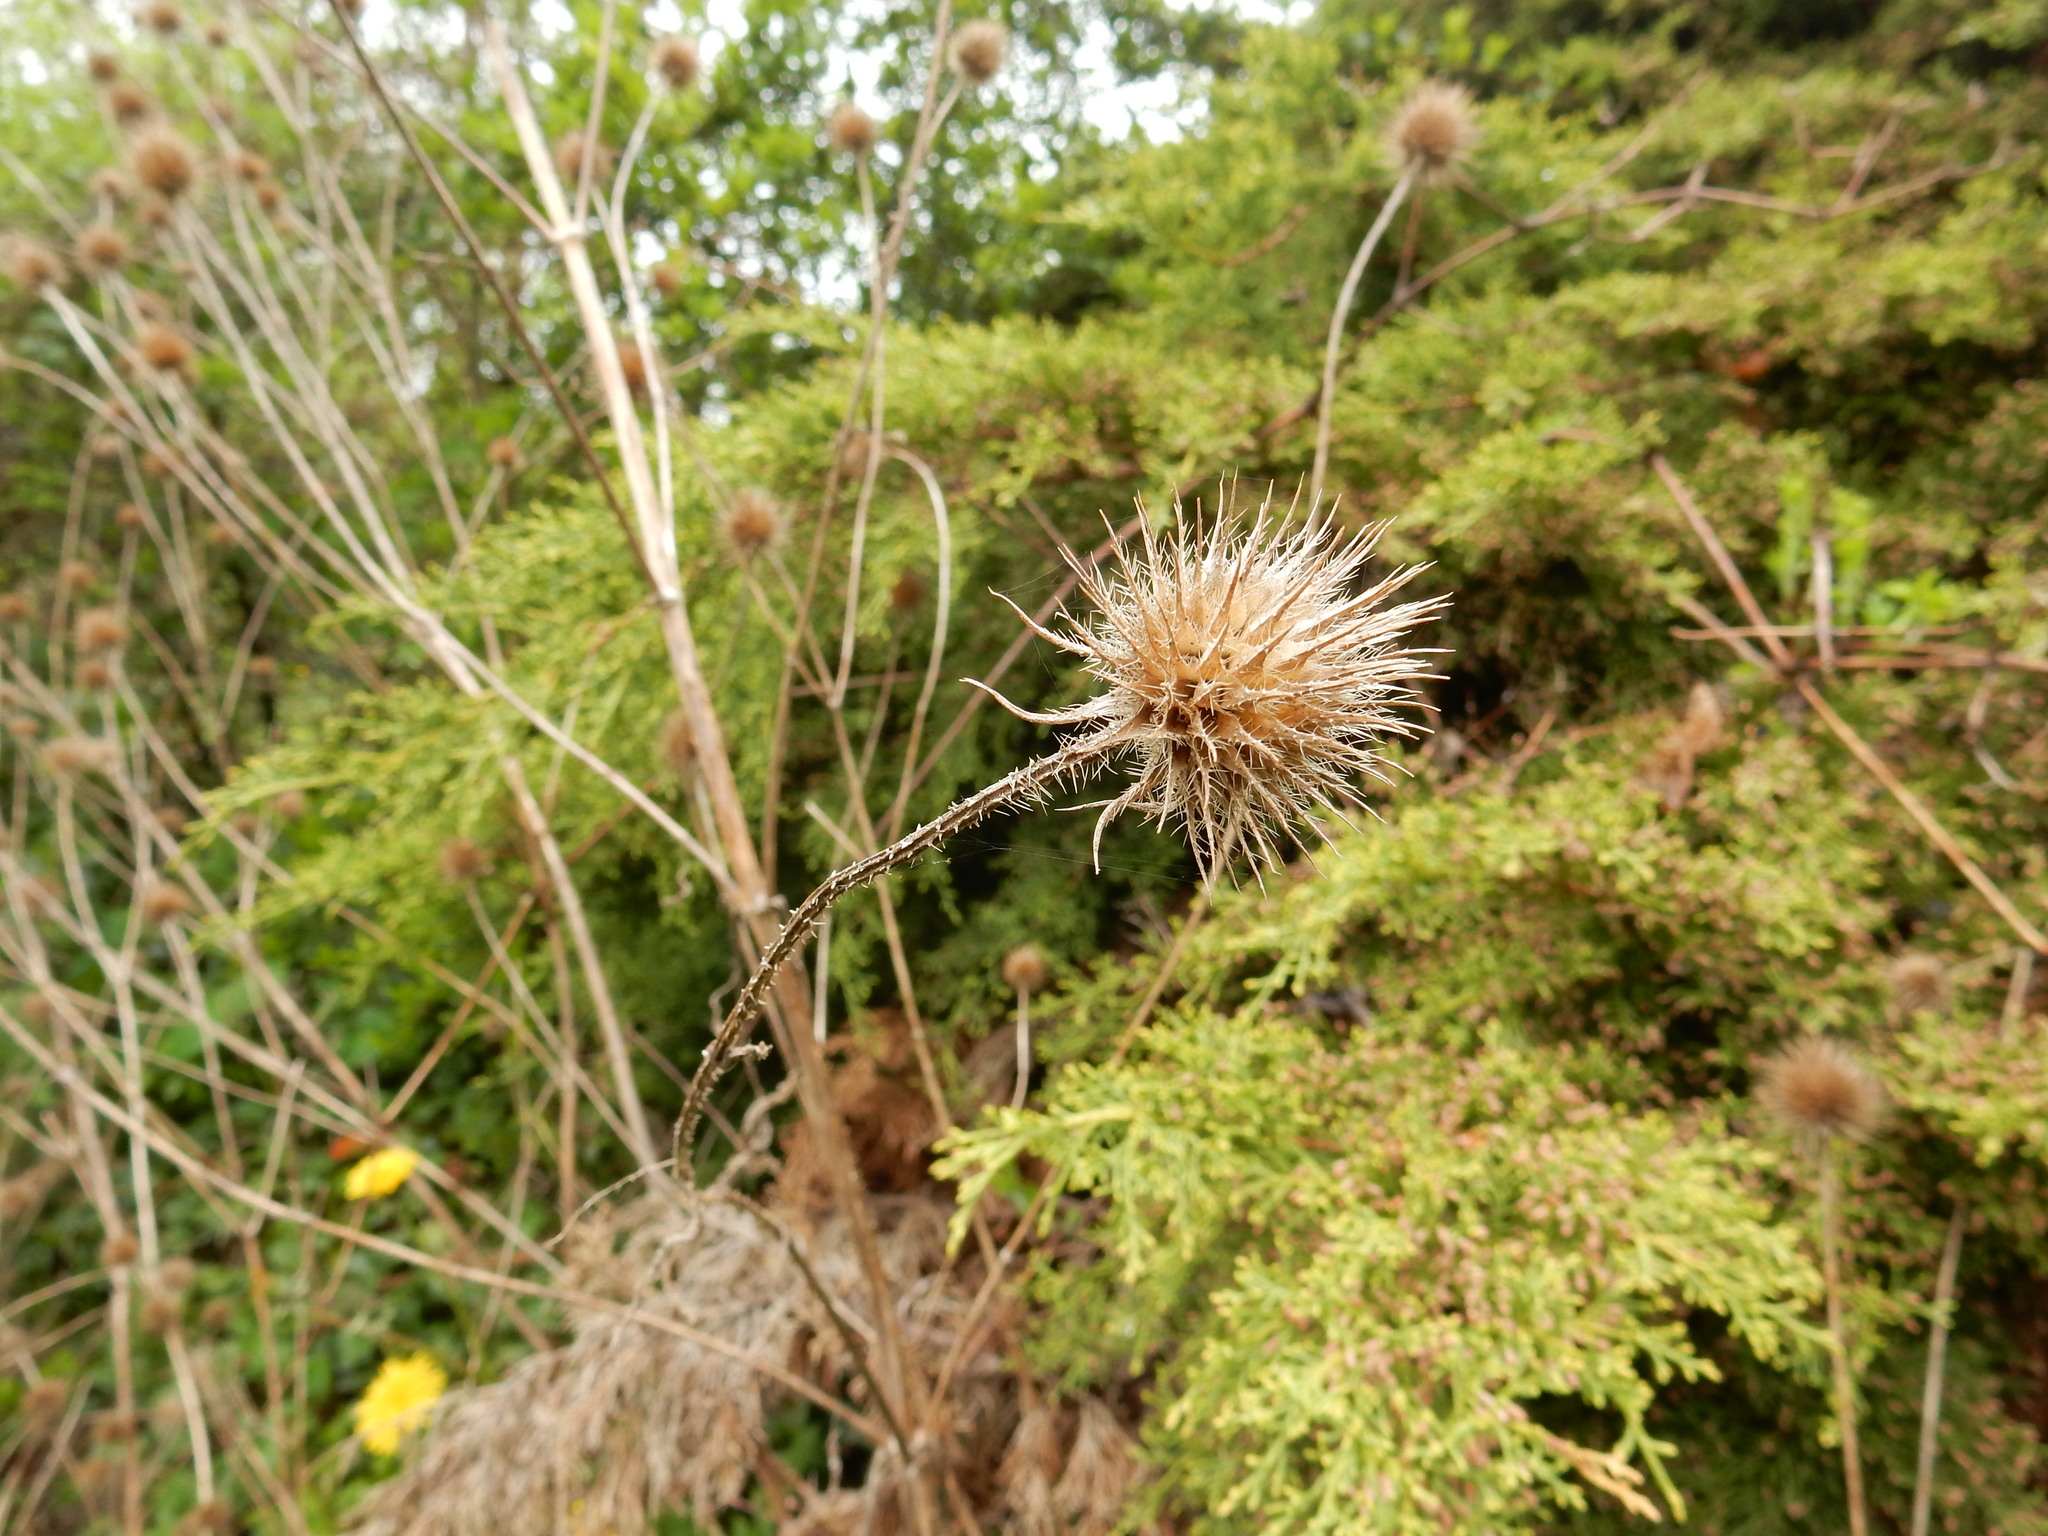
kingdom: Plantae
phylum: Tracheophyta
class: Magnoliopsida
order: Dipsacales
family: Caprifoliaceae
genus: Dipsacus
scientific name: Dipsacus strigosus
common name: Yellow-flowered teasel
